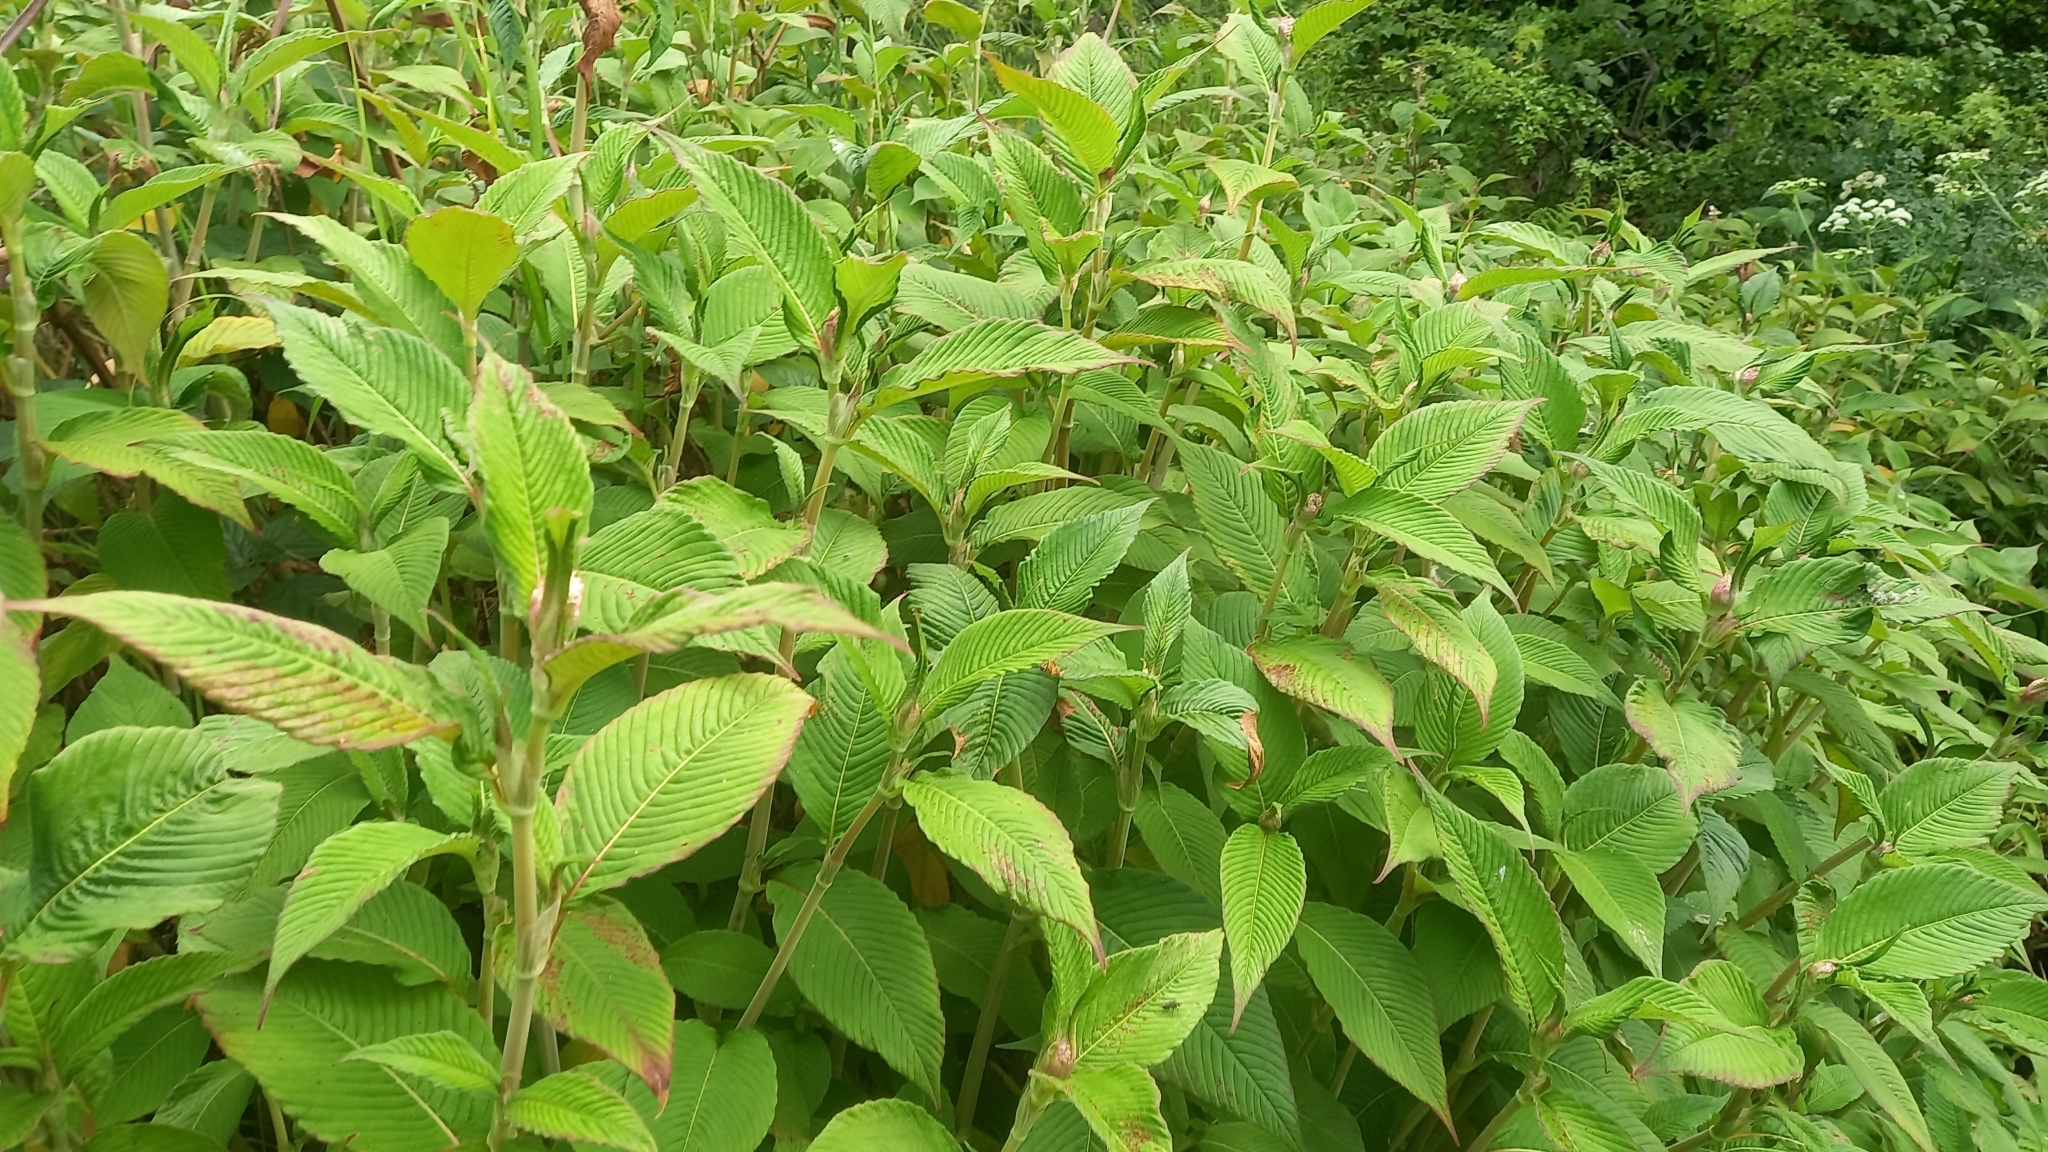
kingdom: Plantae
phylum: Tracheophyta
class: Magnoliopsida
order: Caryophyllales
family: Polygonaceae
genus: Koenigia
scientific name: Koenigia campanulata
